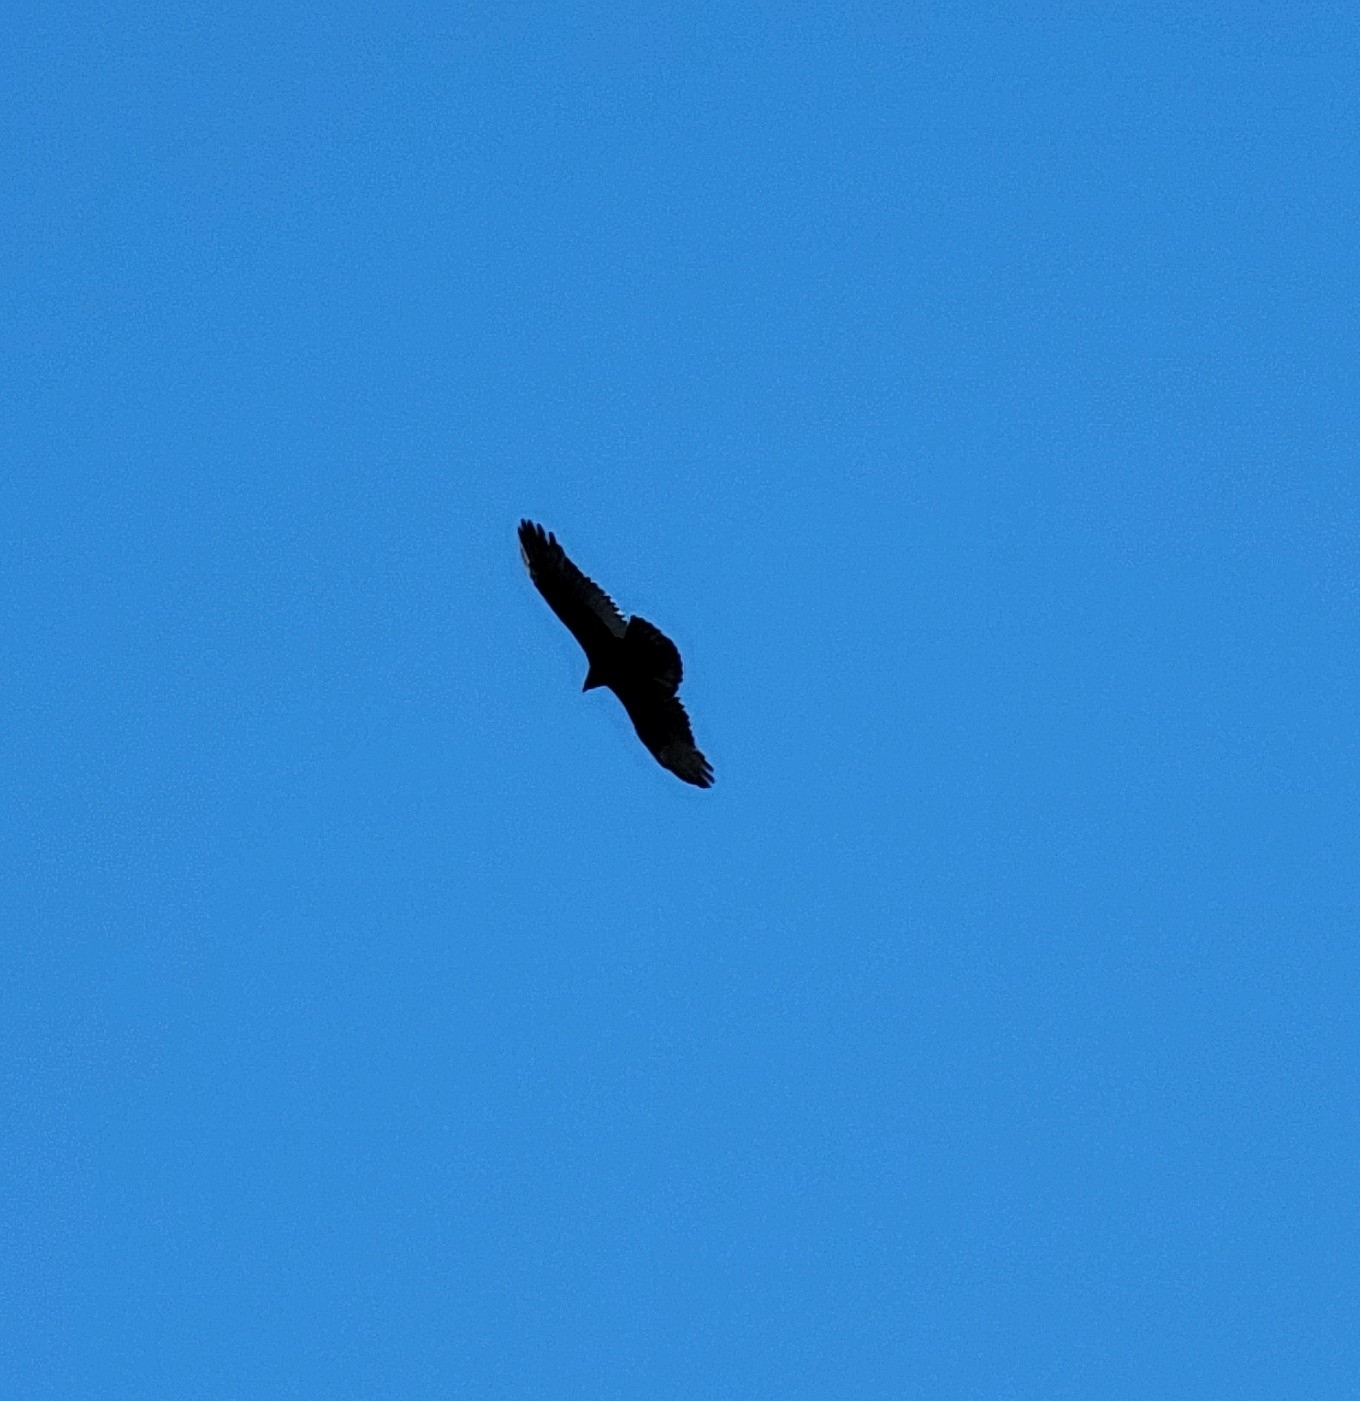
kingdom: Animalia
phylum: Chordata
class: Aves
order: Accipitriformes
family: Cathartidae
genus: Coragyps
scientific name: Coragyps atratus
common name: Black vulture
